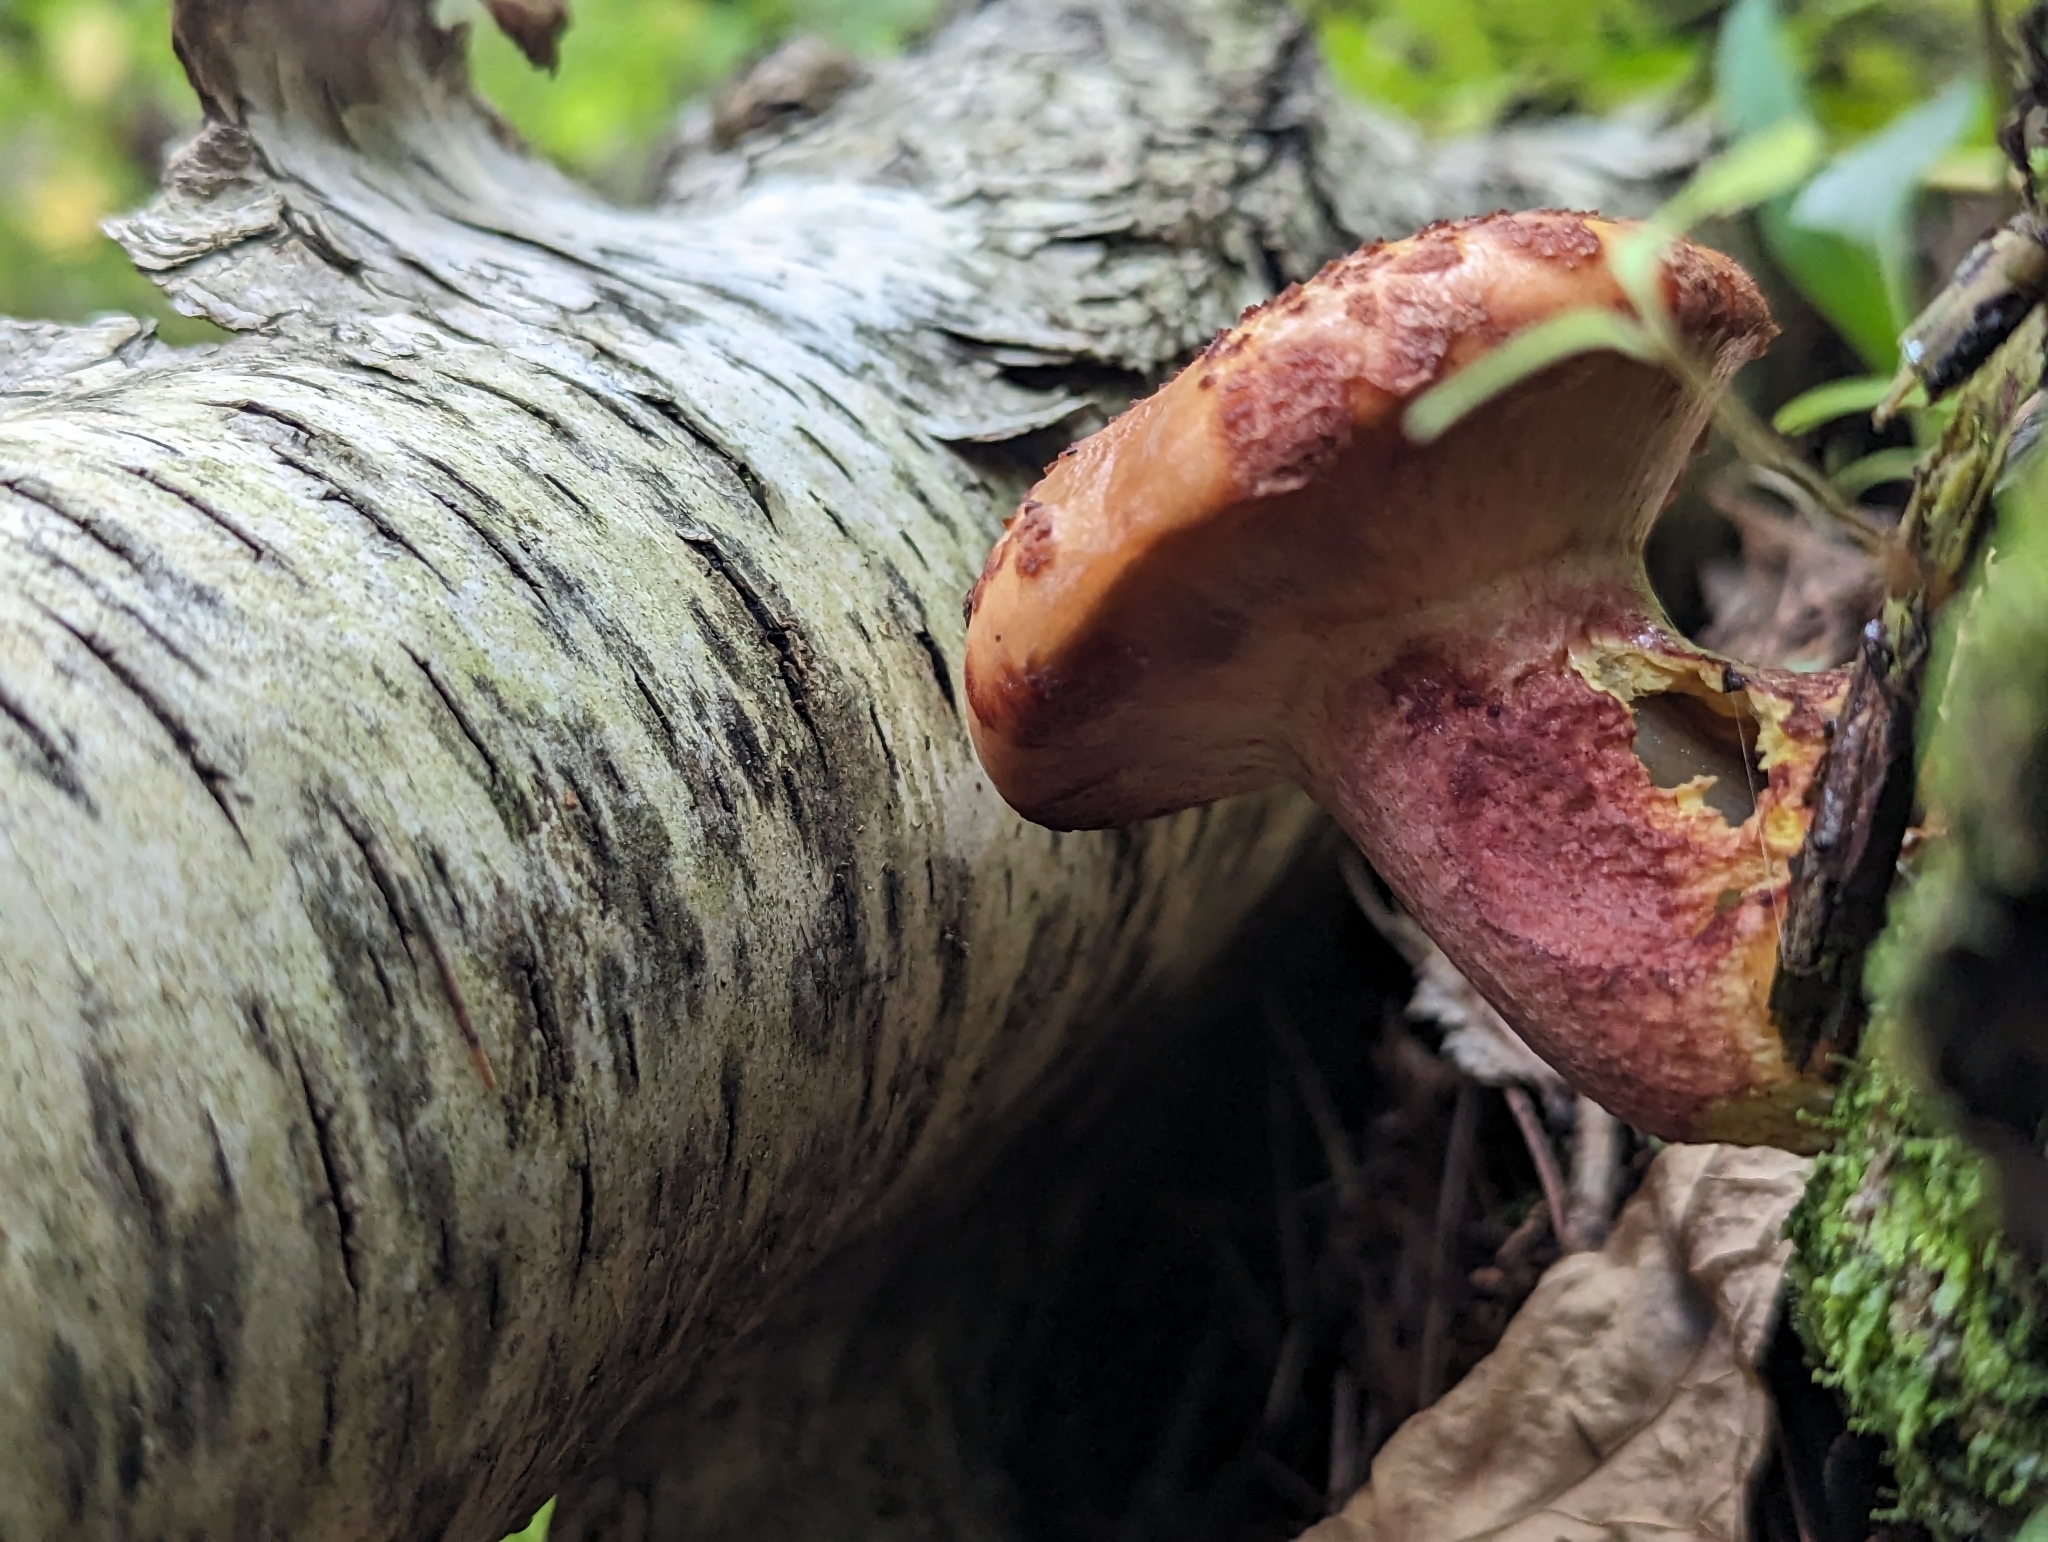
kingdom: Fungi
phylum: Basidiomycota
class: Agaricomycetes
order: Boletales
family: Suillaceae
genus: Boletinus
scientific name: Boletinus spectabilis
